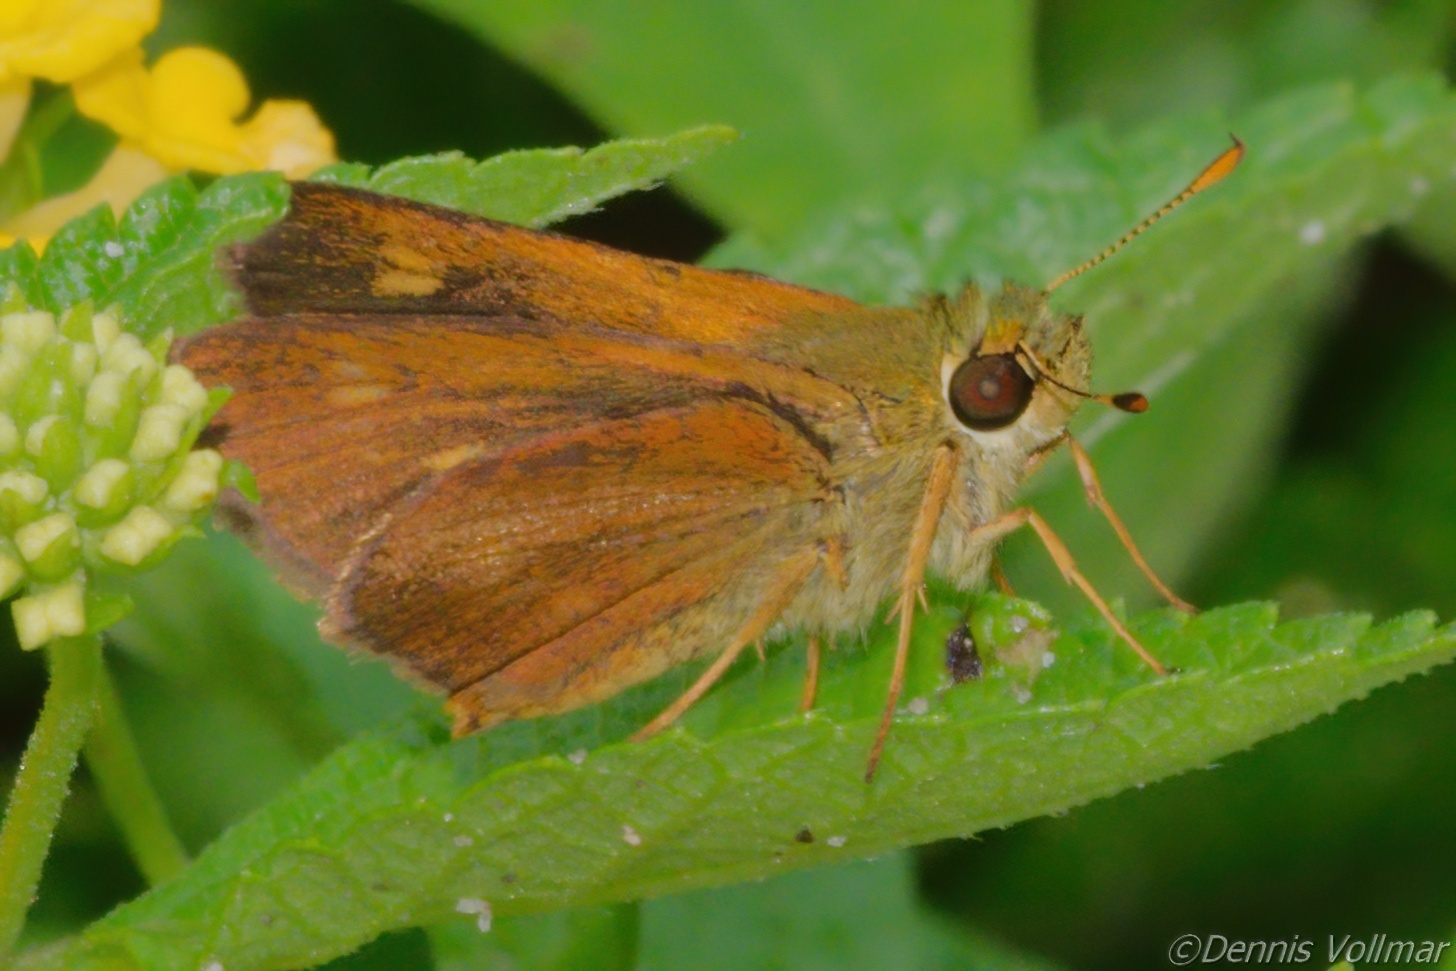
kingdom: Animalia
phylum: Arthropoda
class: Insecta
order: Lepidoptera
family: Hesperiidae
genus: Polites
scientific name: Polites otho
